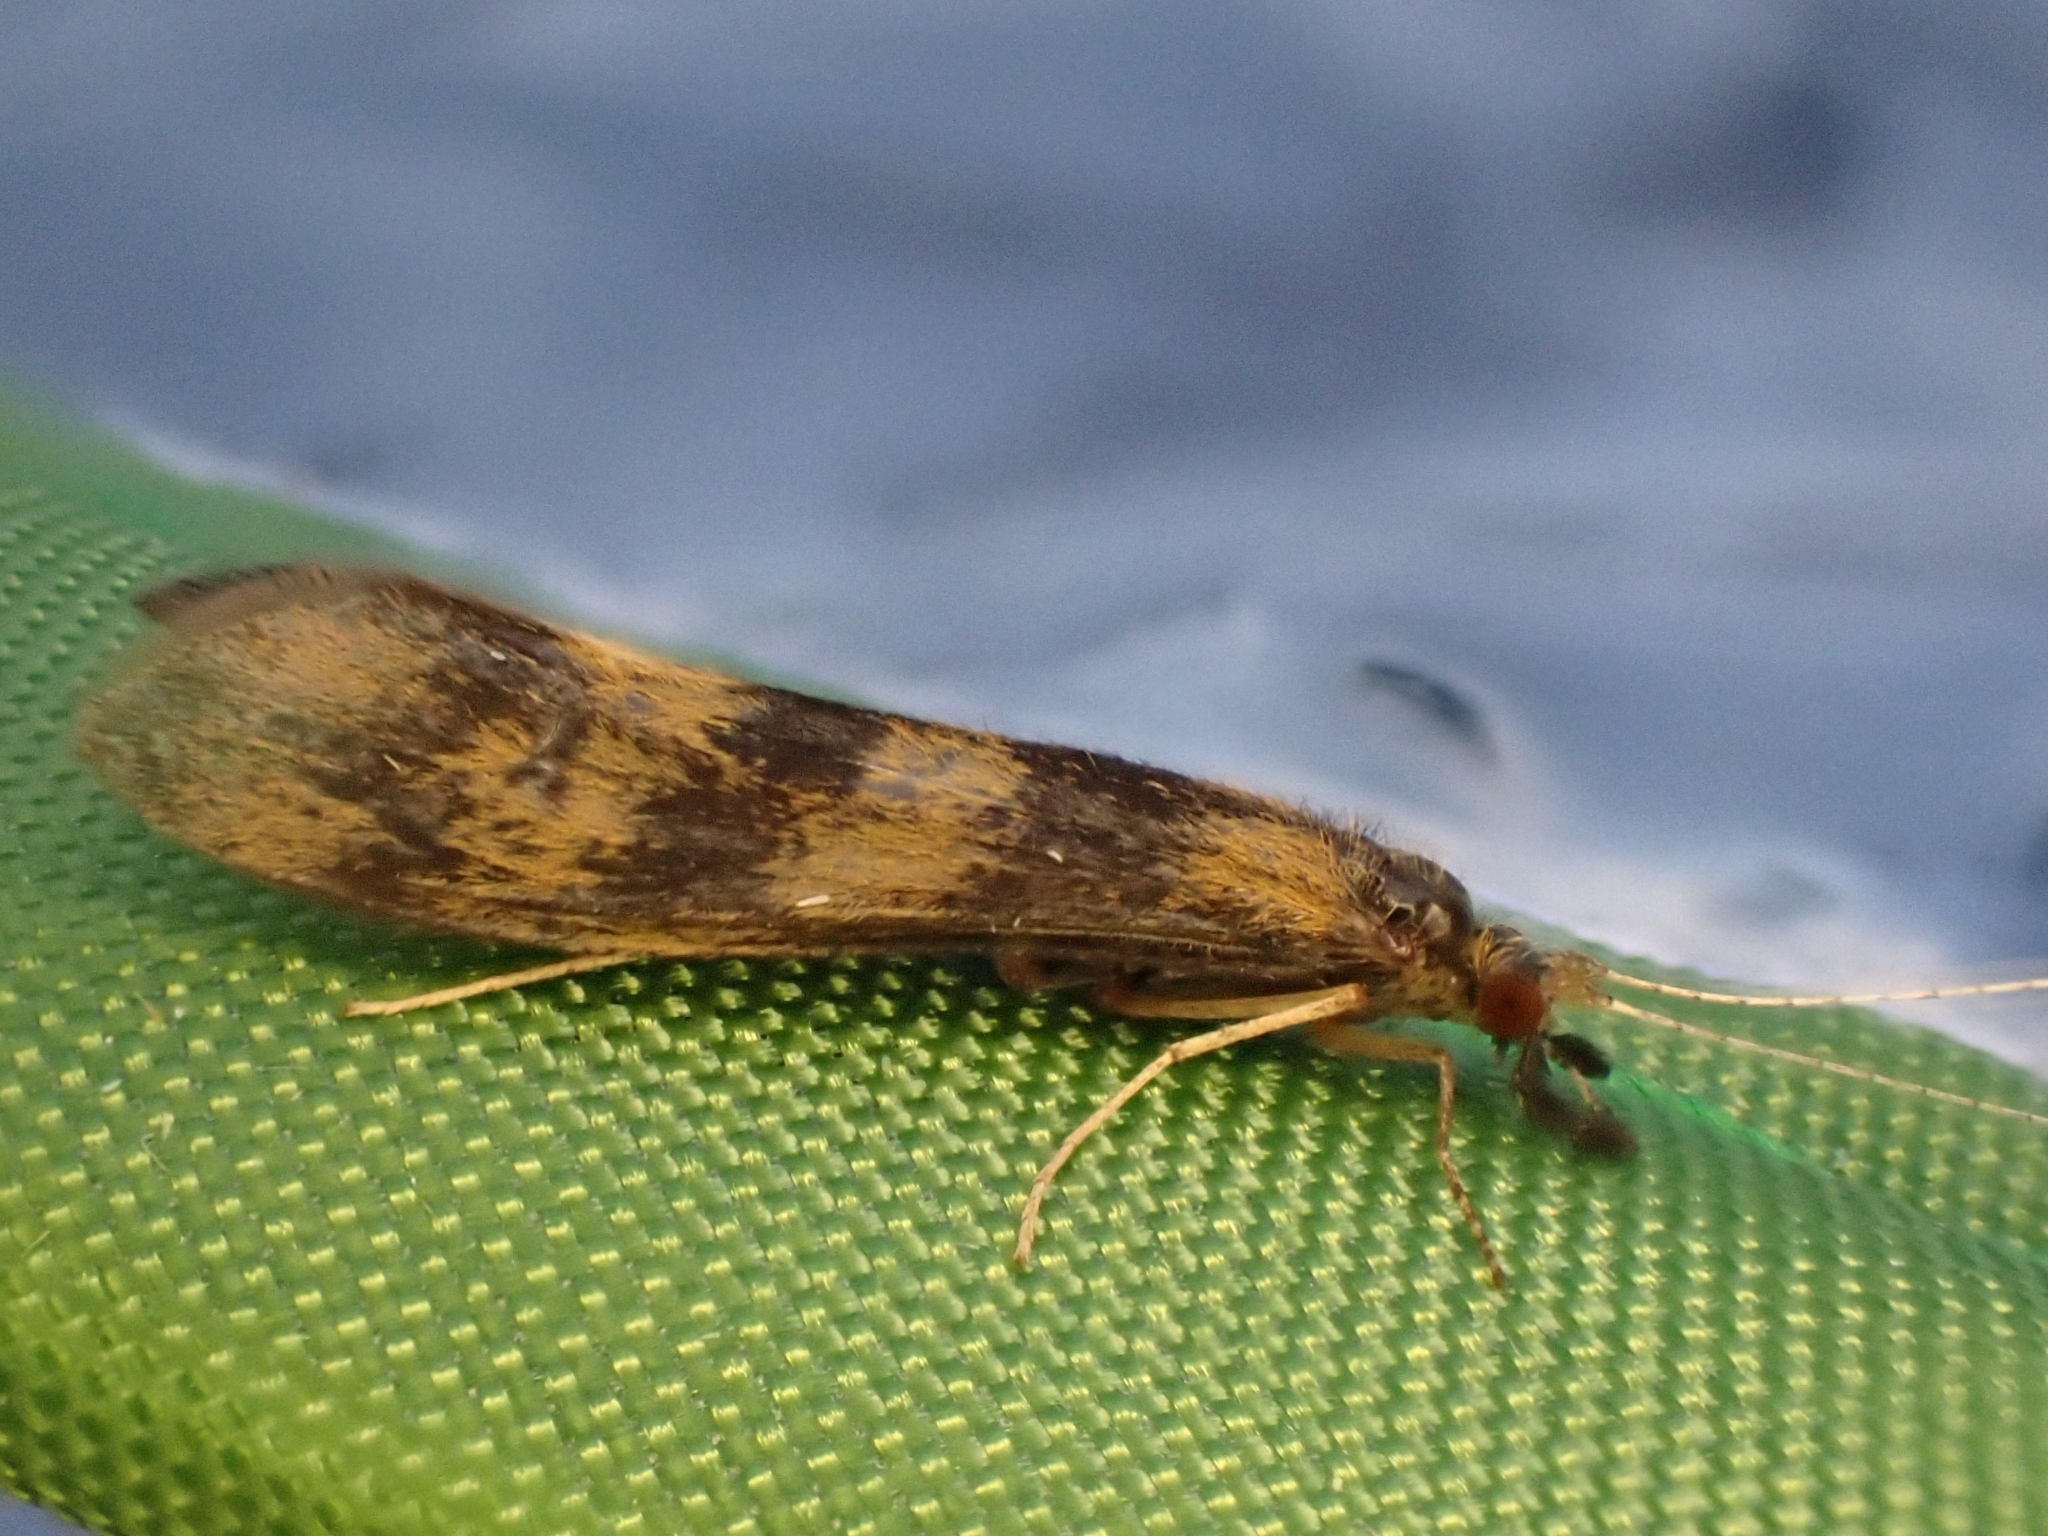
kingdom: Animalia
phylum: Arthropoda
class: Insecta
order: Trichoptera
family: Leptoceridae
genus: Mystacides
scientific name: Mystacides longicornis
